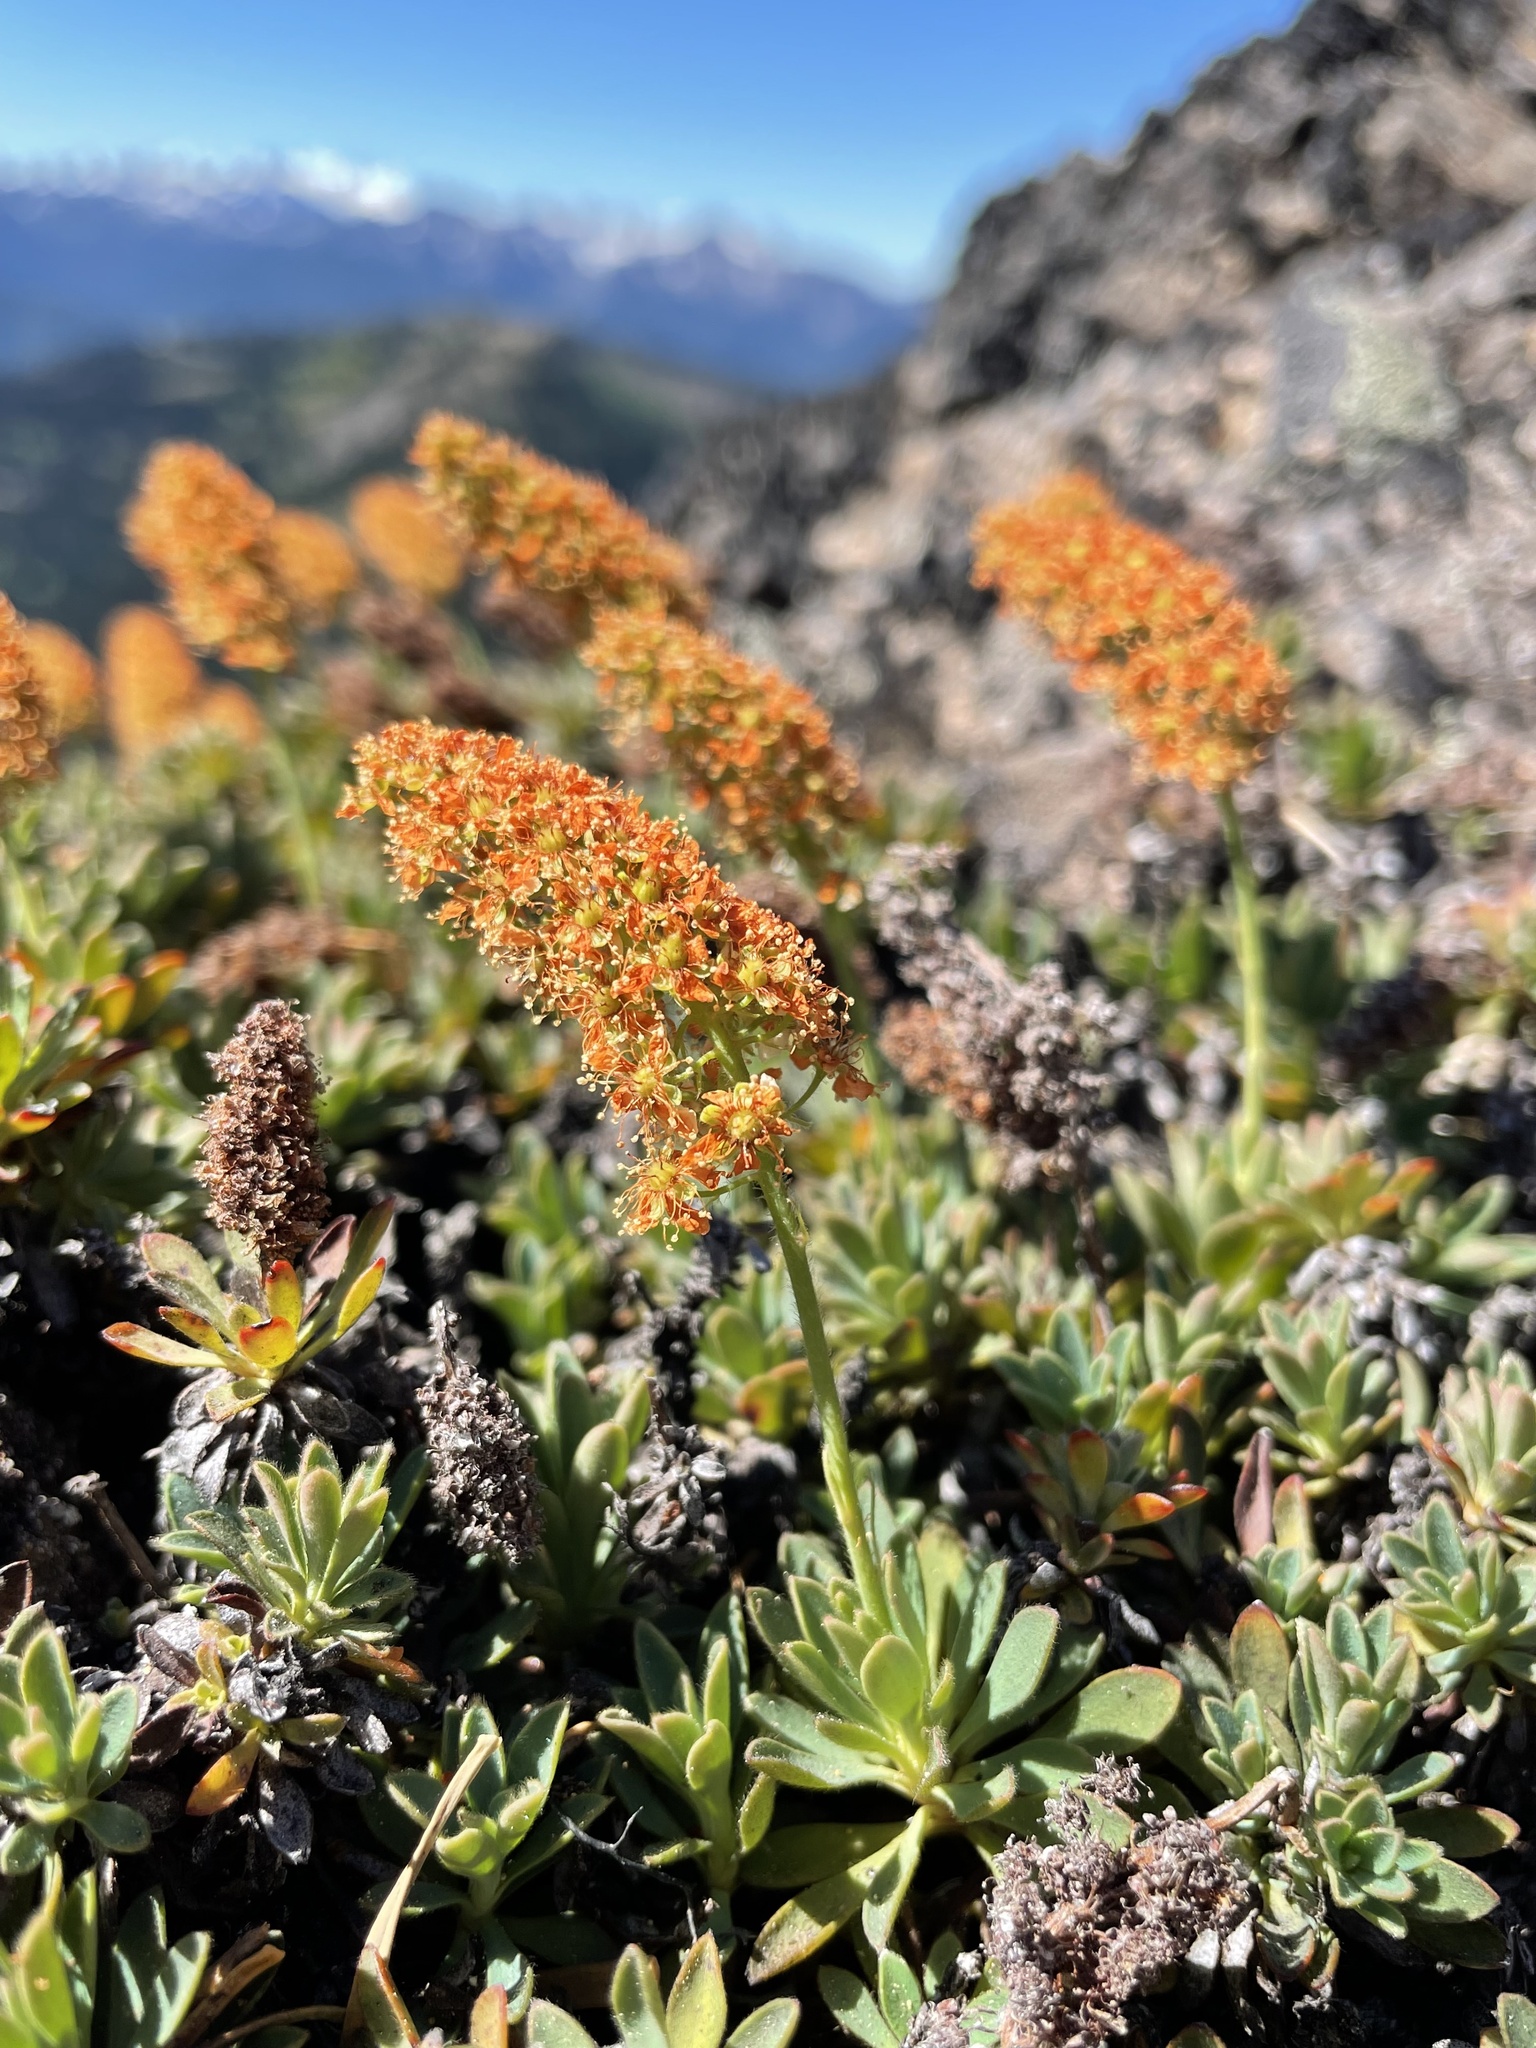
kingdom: Plantae
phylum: Tracheophyta
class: Magnoliopsida
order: Rosales
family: Rosaceae
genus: Petrophytum
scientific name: Petrophytum hendersonii
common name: Olympic mountain rockmat
